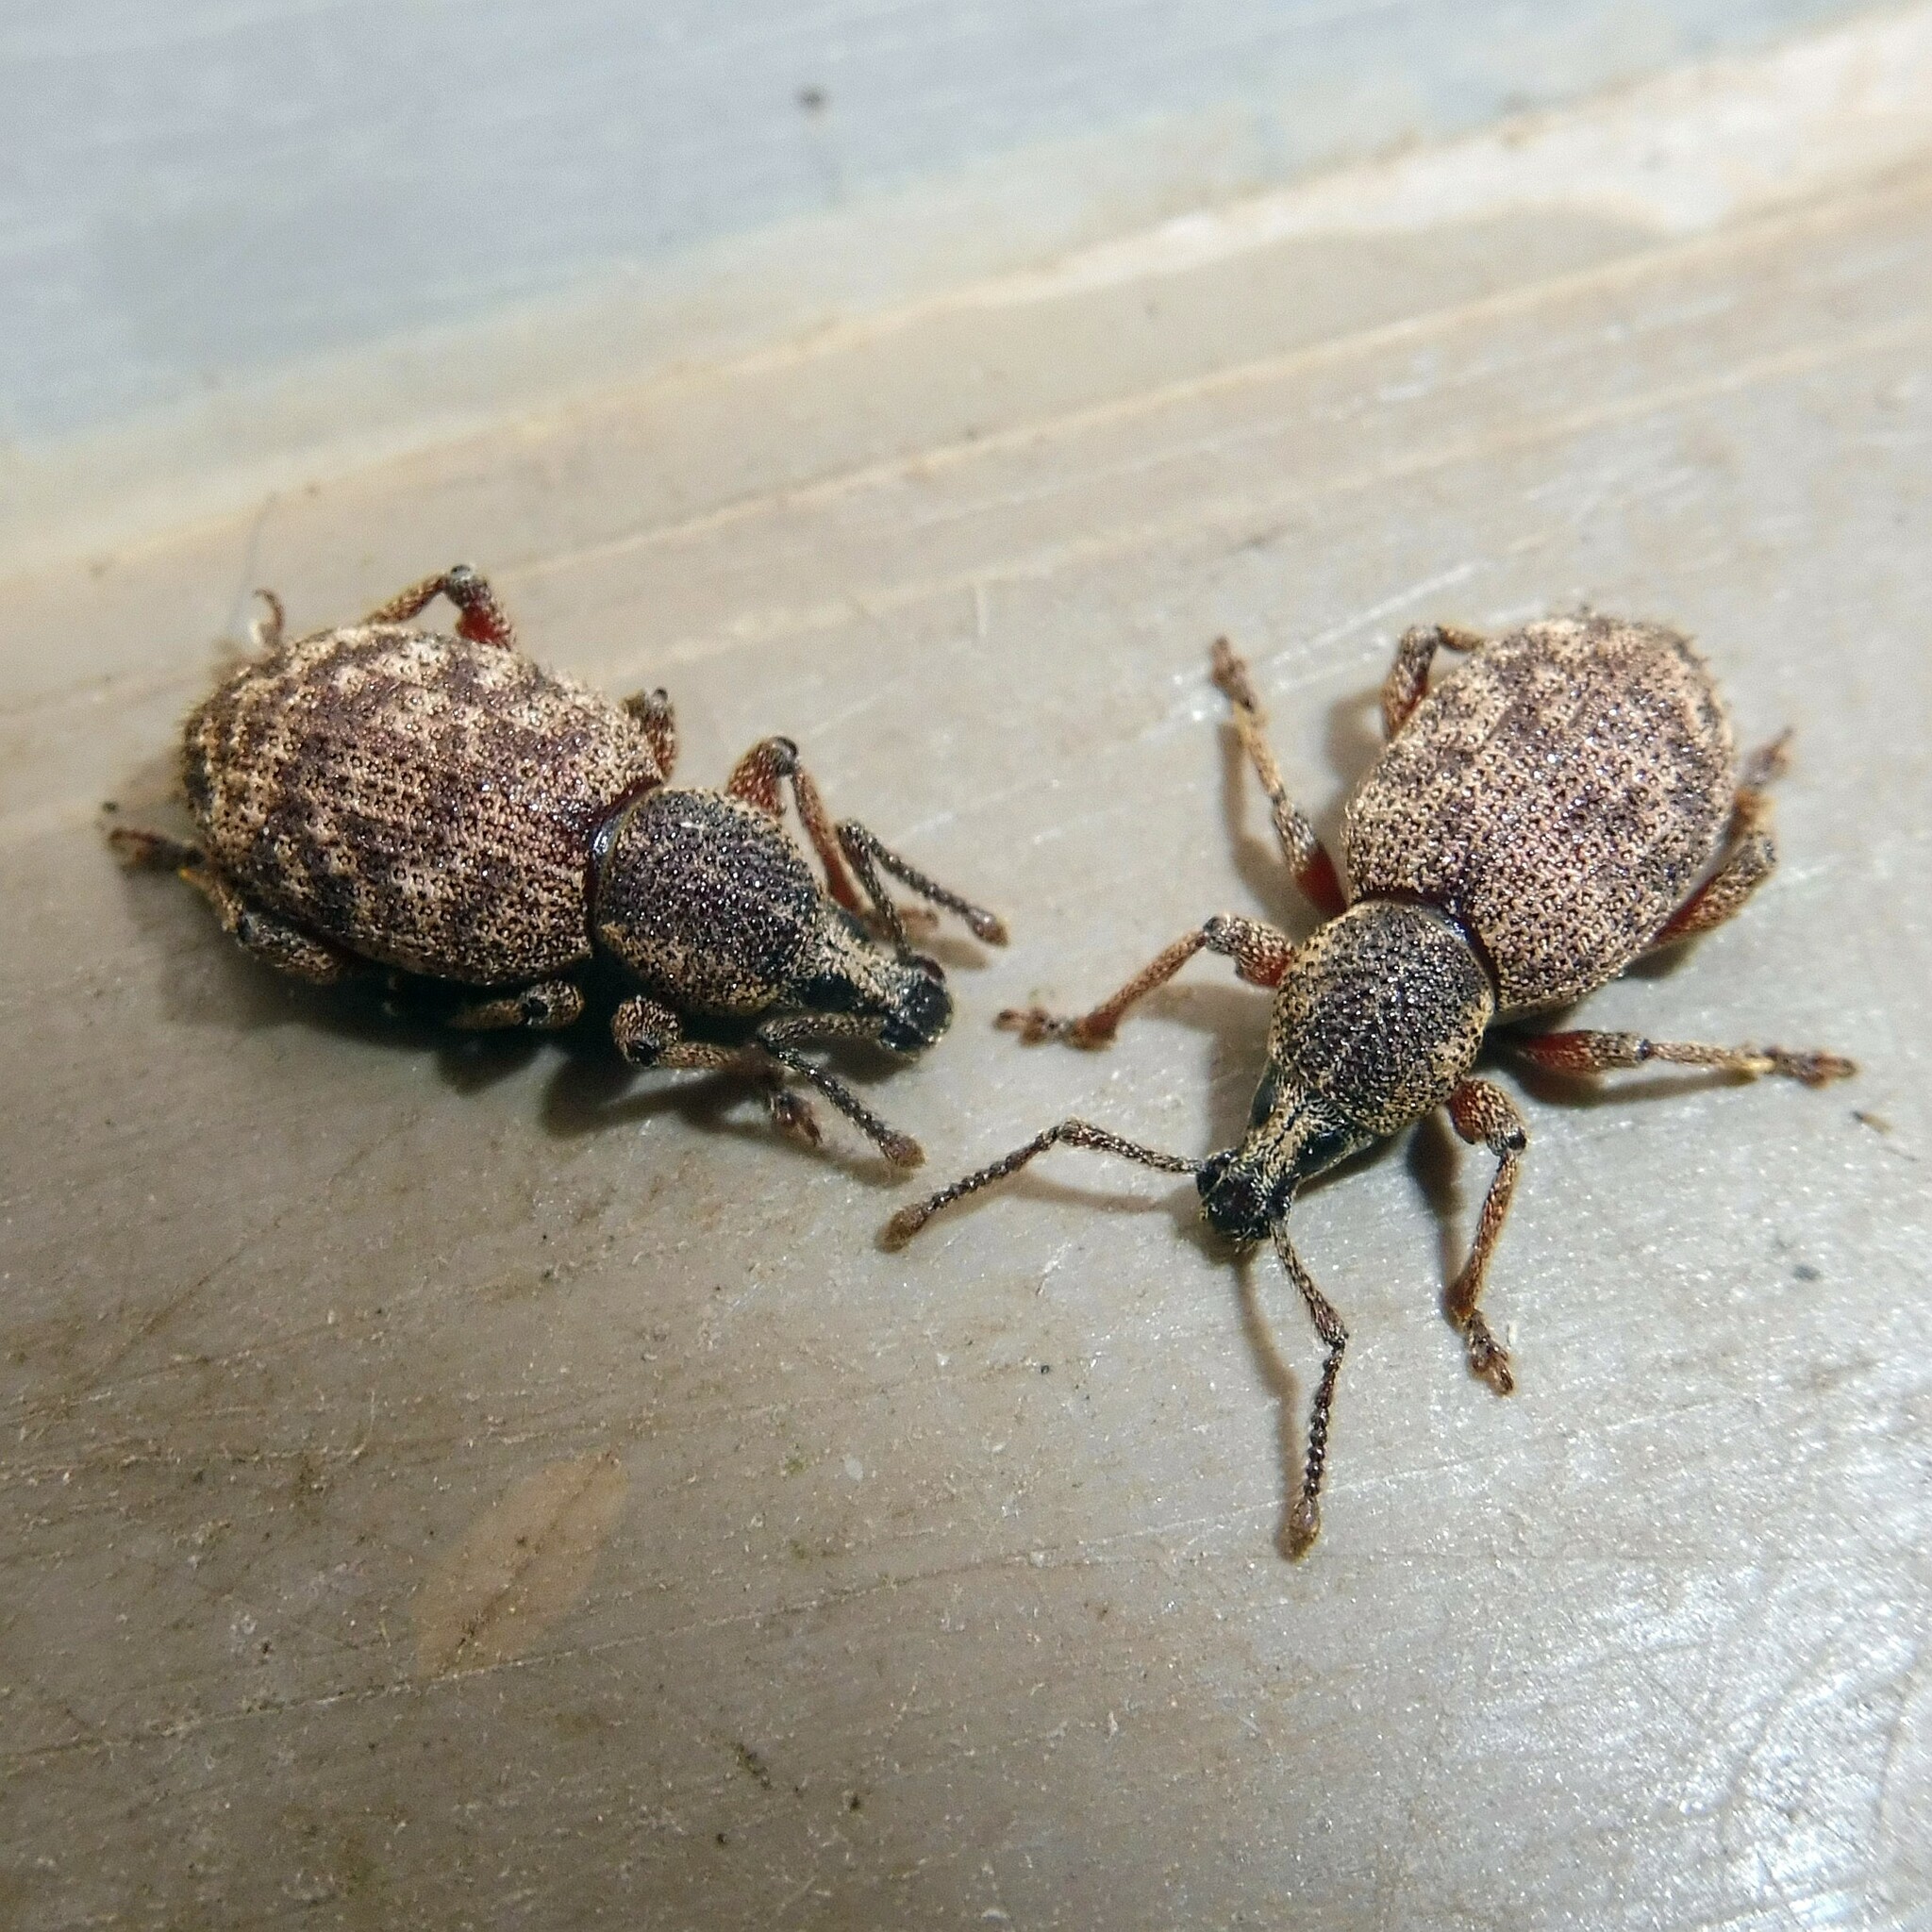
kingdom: Animalia
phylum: Arthropoda
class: Insecta
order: Coleoptera
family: Curculionidae
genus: Otiorhynchus
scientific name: Otiorhynchus singularis
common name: Clay-coloured weevil
